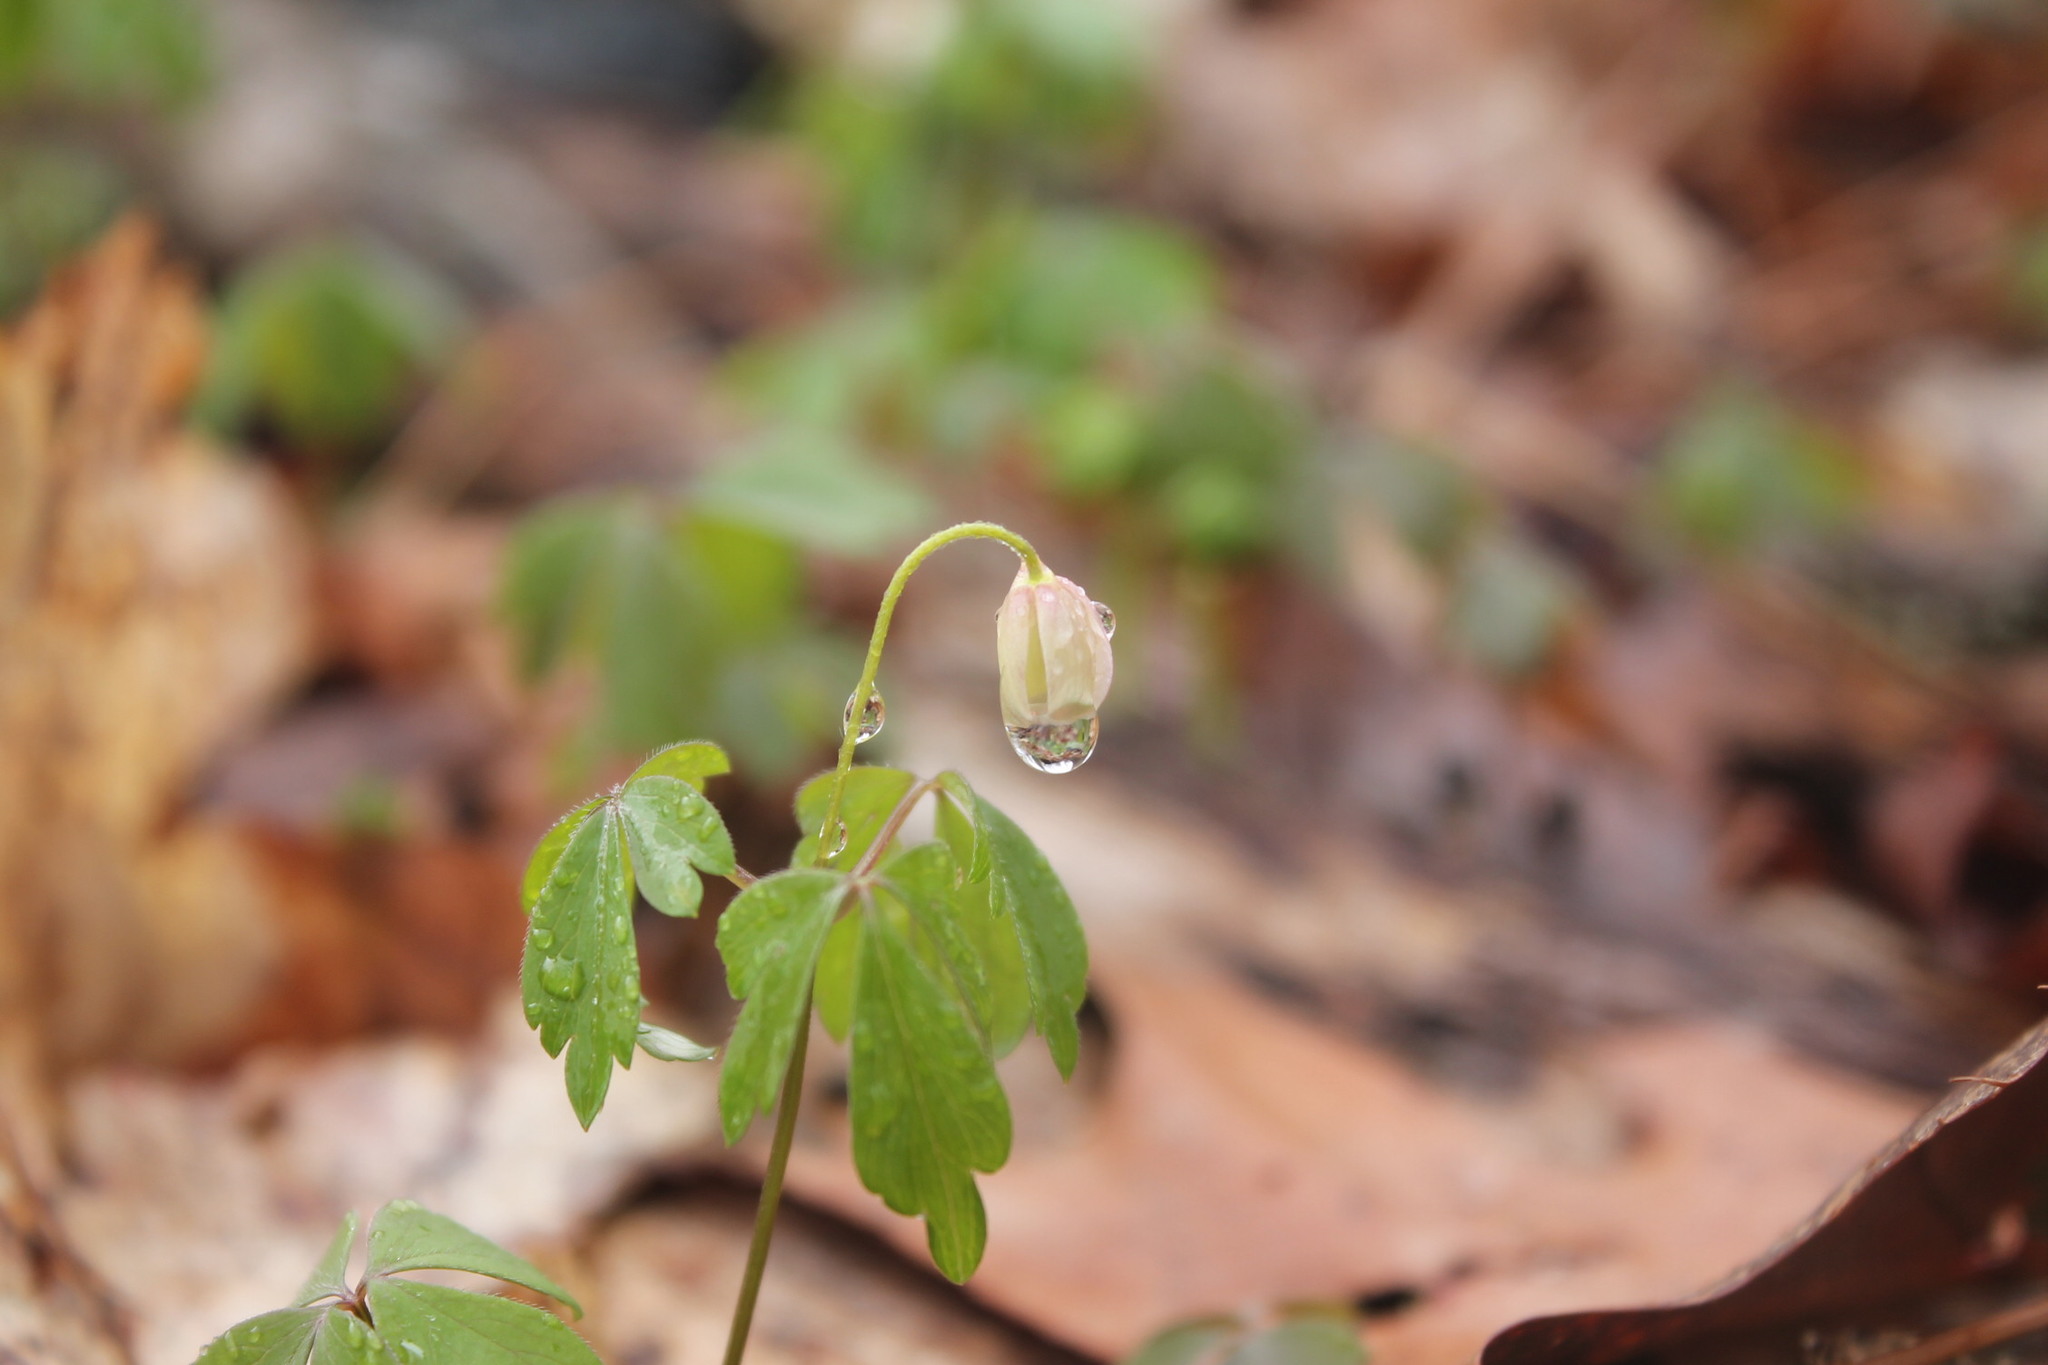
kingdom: Plantae
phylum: Tracheophyta
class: Magnoliopsida
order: Ranunculales
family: Ranunculaceae
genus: Anemone
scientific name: Anemone quinquefolia
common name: Wood anemone
